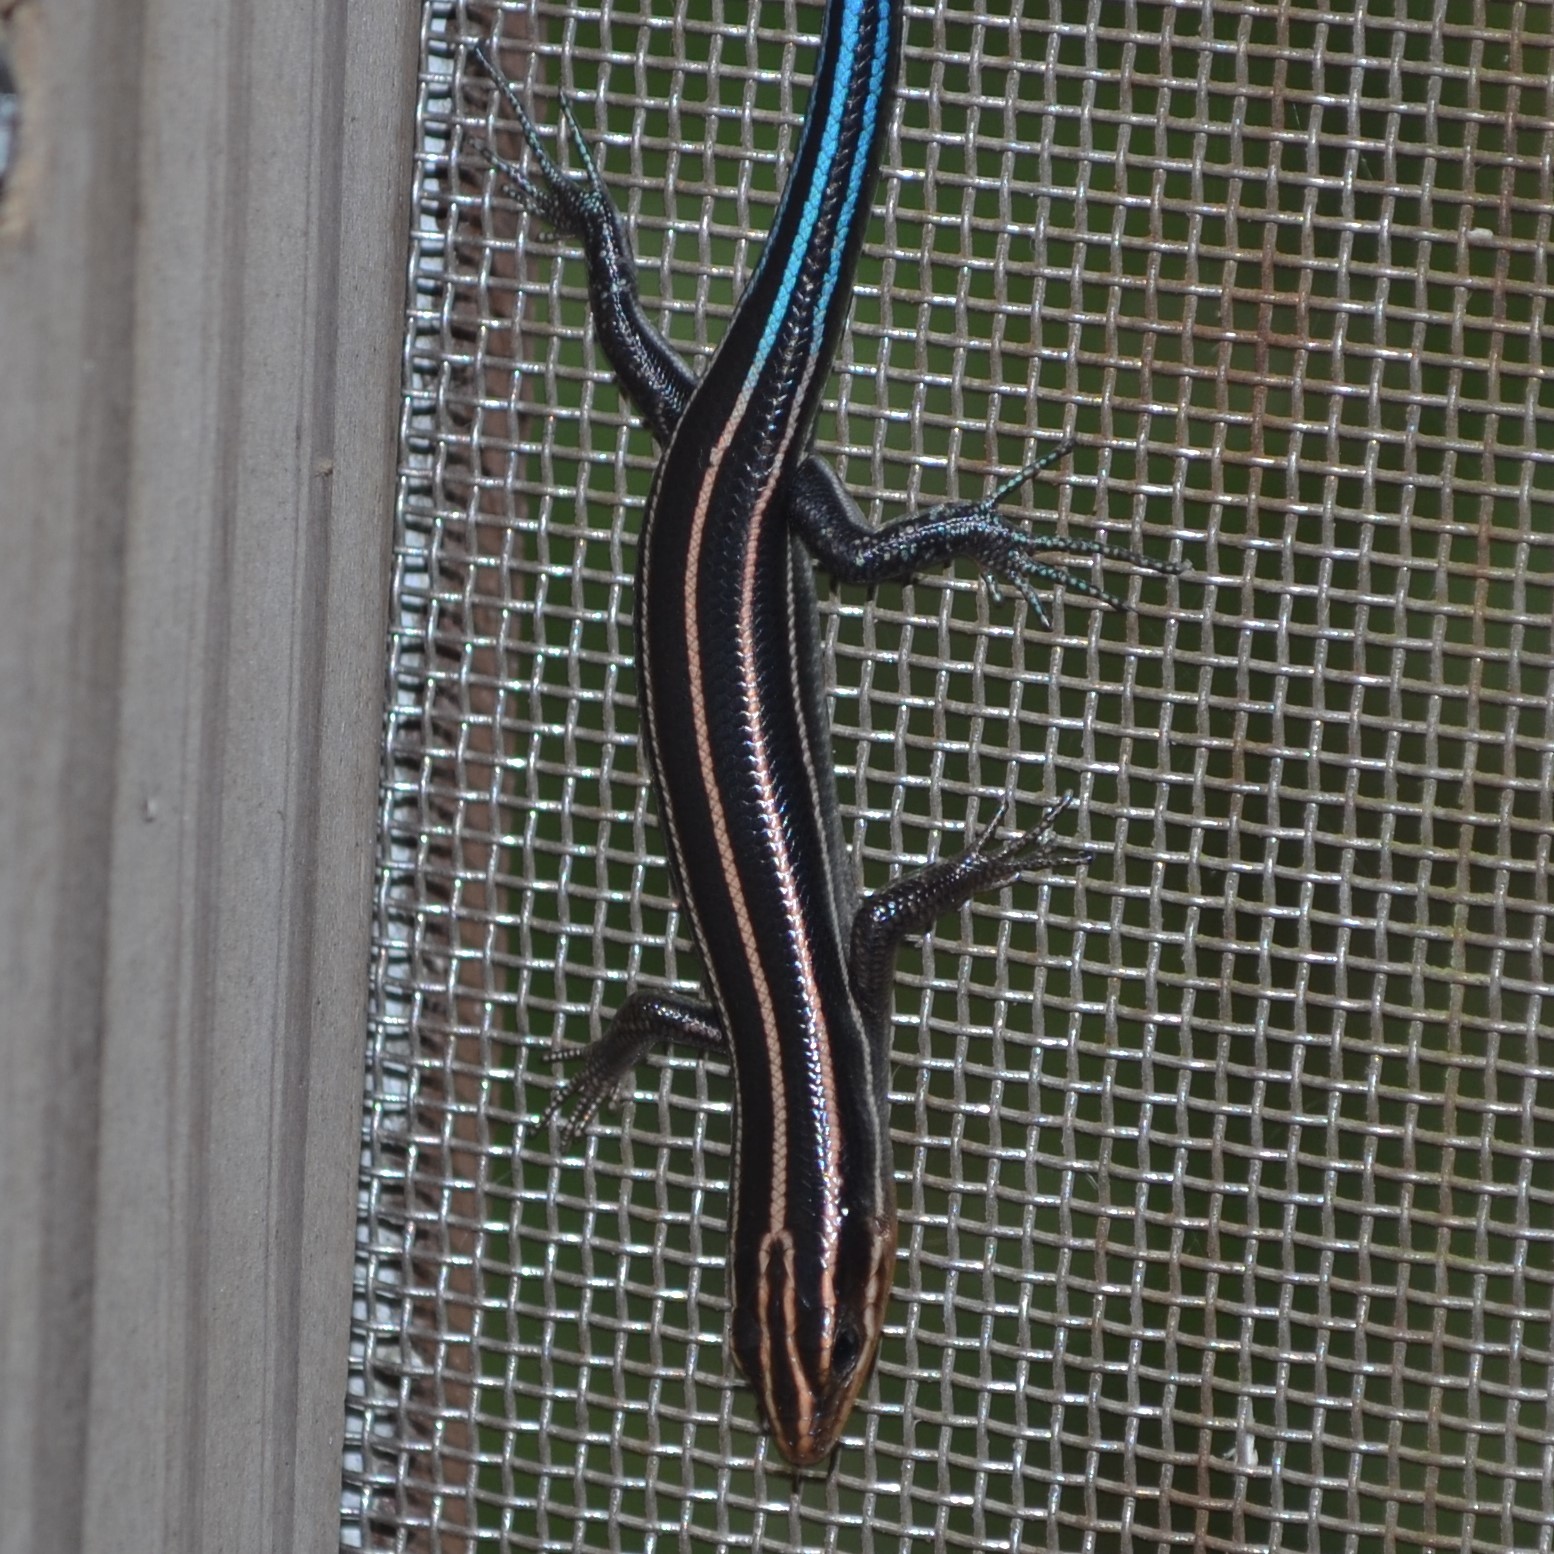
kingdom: Animalia
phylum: Chordata
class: Squamata
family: Scincidae
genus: Plestiodon
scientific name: Plestiodon fasciatus
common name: Five-lined skink
